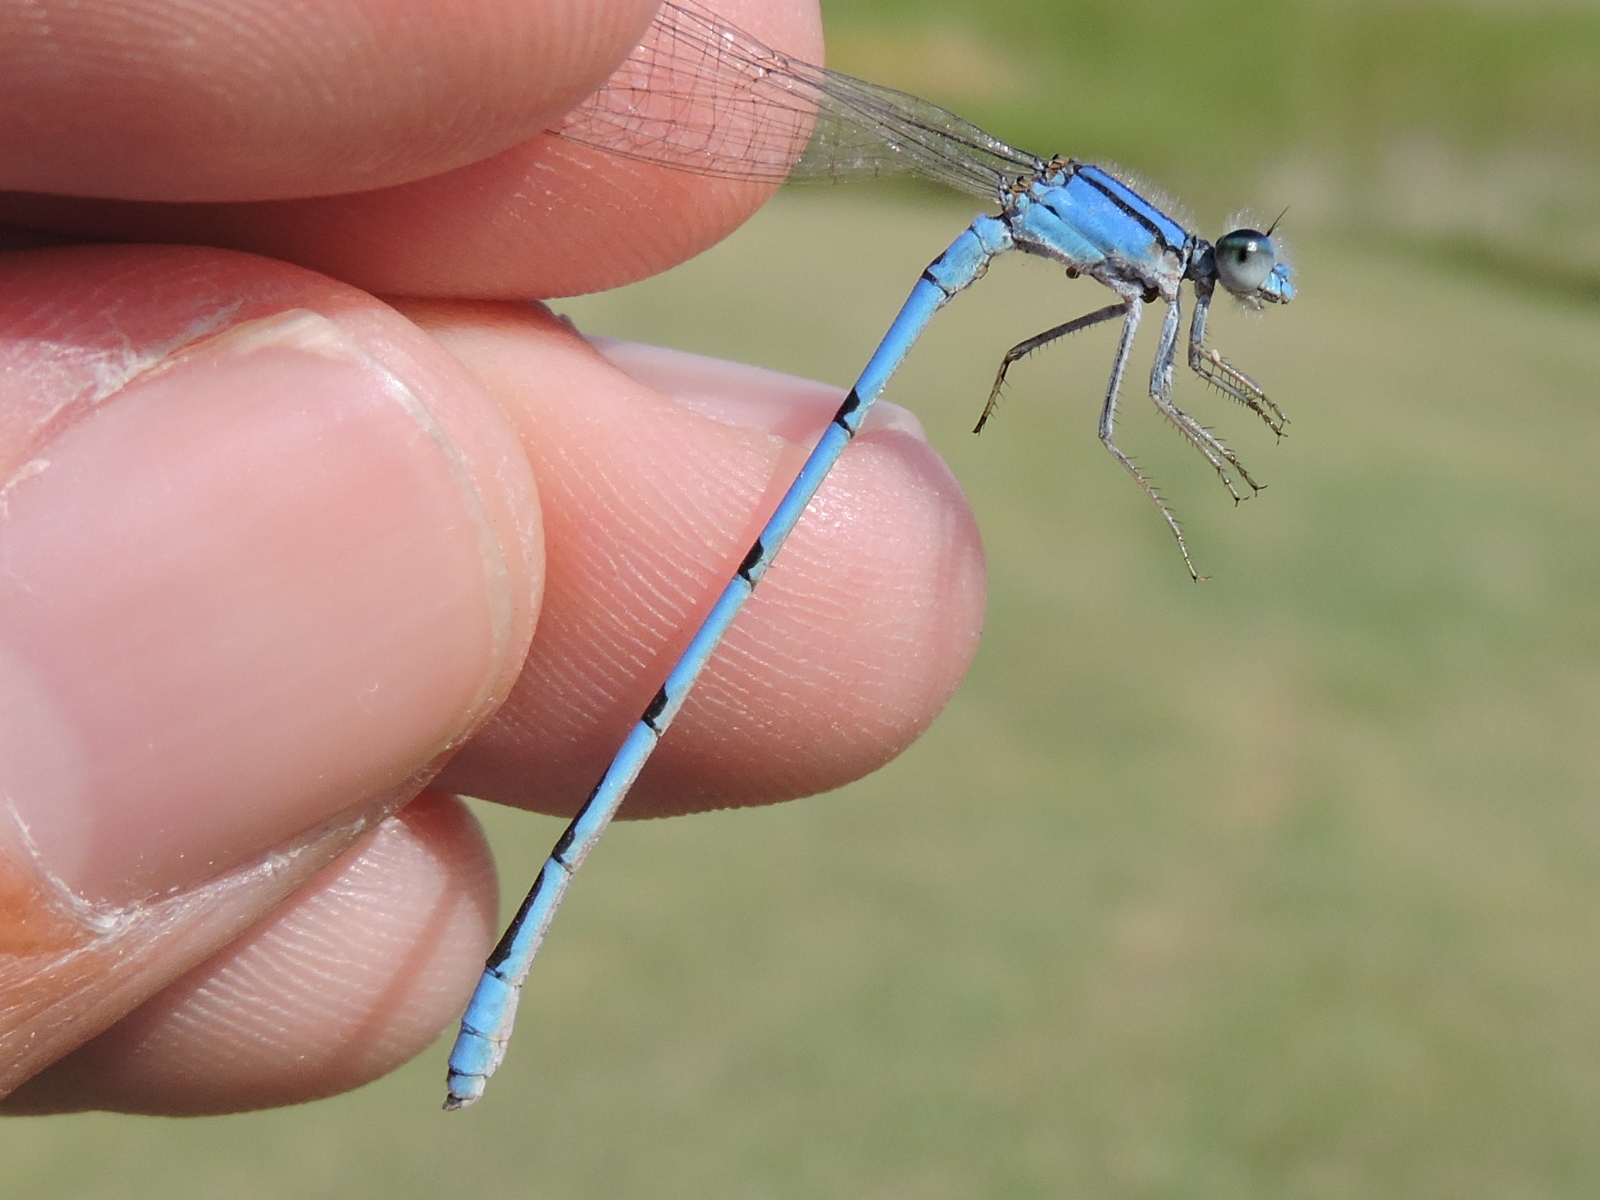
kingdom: Animalia
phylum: Arthropoda
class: Insecta
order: Odonata
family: Coenagrionidae
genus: Enallagma
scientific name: Enallagma civile
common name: Damselfly
